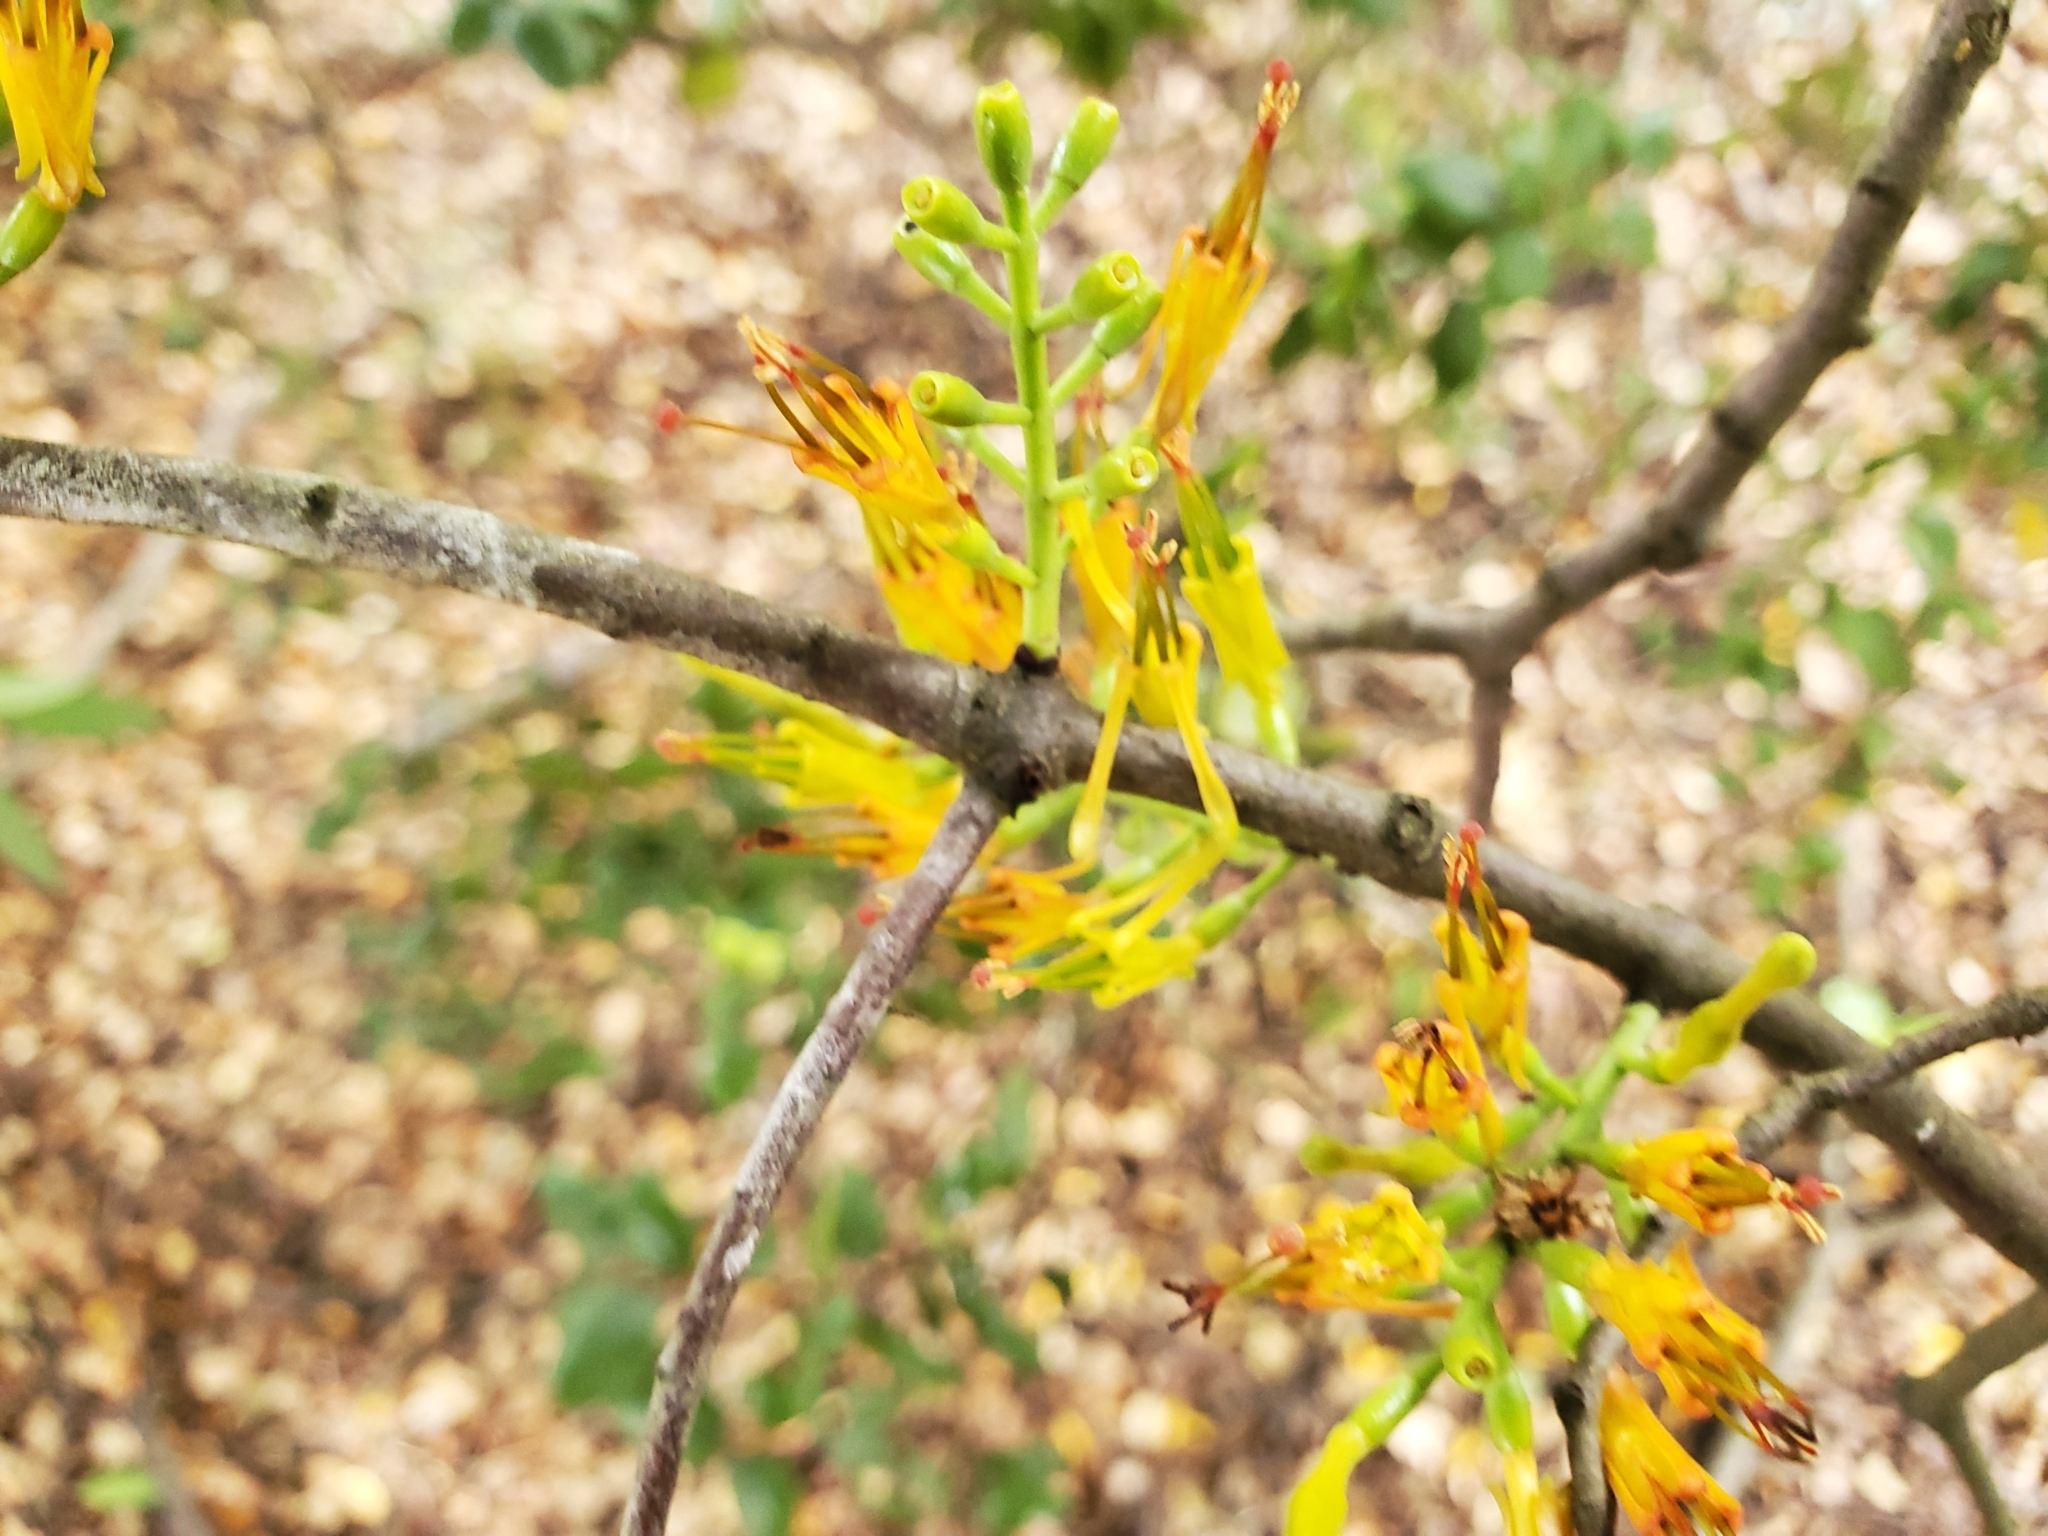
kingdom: Plantae
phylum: Tracheophyta
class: Magnoliopsida
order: Santalales
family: Loranthaceae
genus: Alepis
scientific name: Alepis flavida
